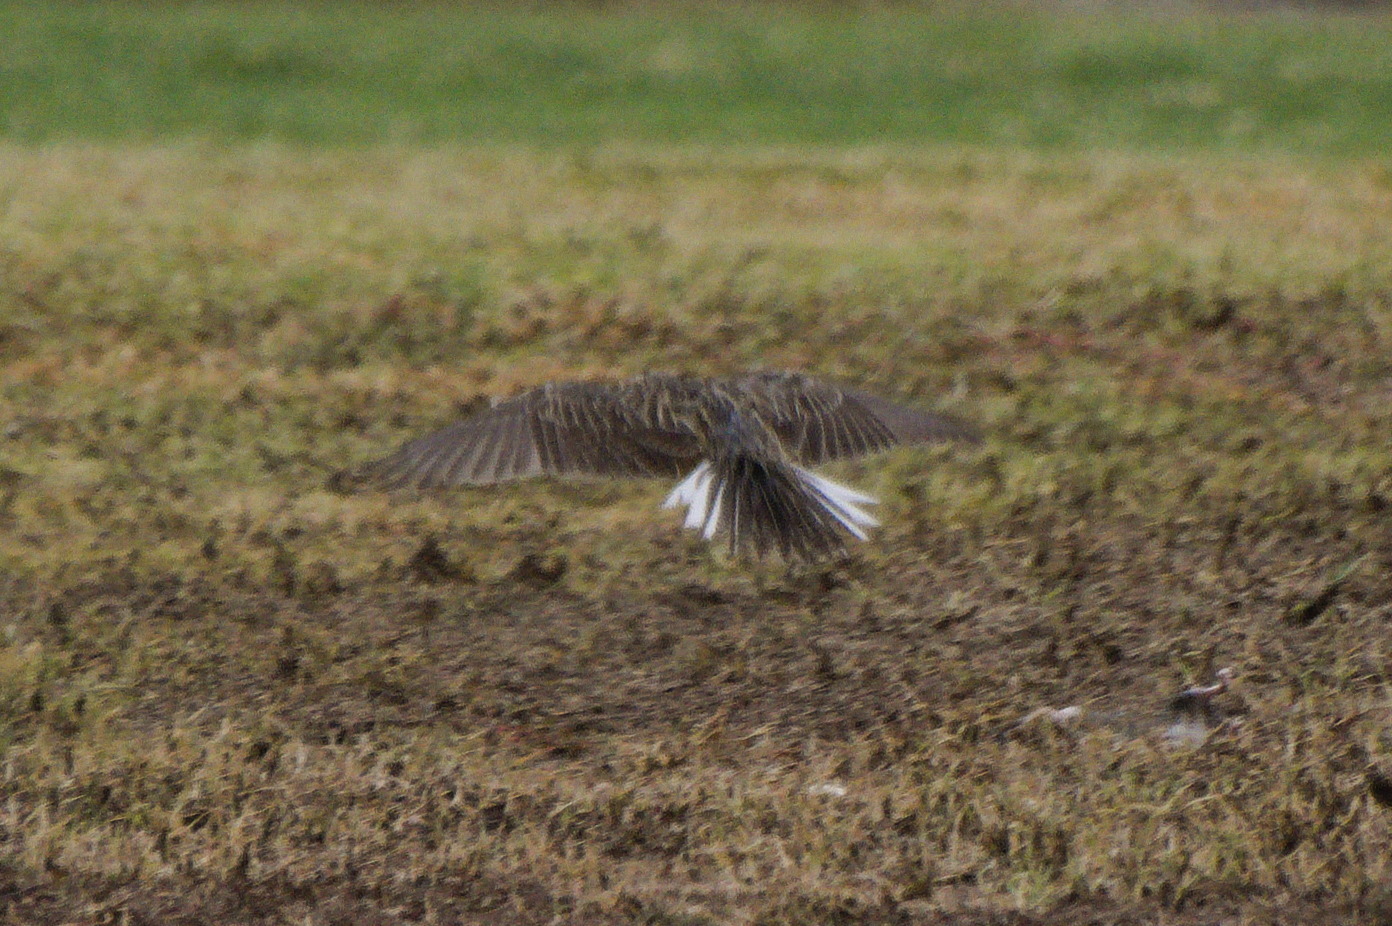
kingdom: Animalia
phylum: Chordata
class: Aves
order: Passeriformes
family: Icteridae
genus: Sturnella
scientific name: Sturnella neglecta
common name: Western meadowlark
